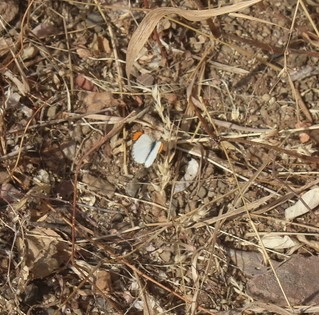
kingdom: Animalia
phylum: Arthropoda
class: Insecta
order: Lepidoptera
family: Pieridae
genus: Colotis
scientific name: Colotis etrida
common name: Little orange tip
